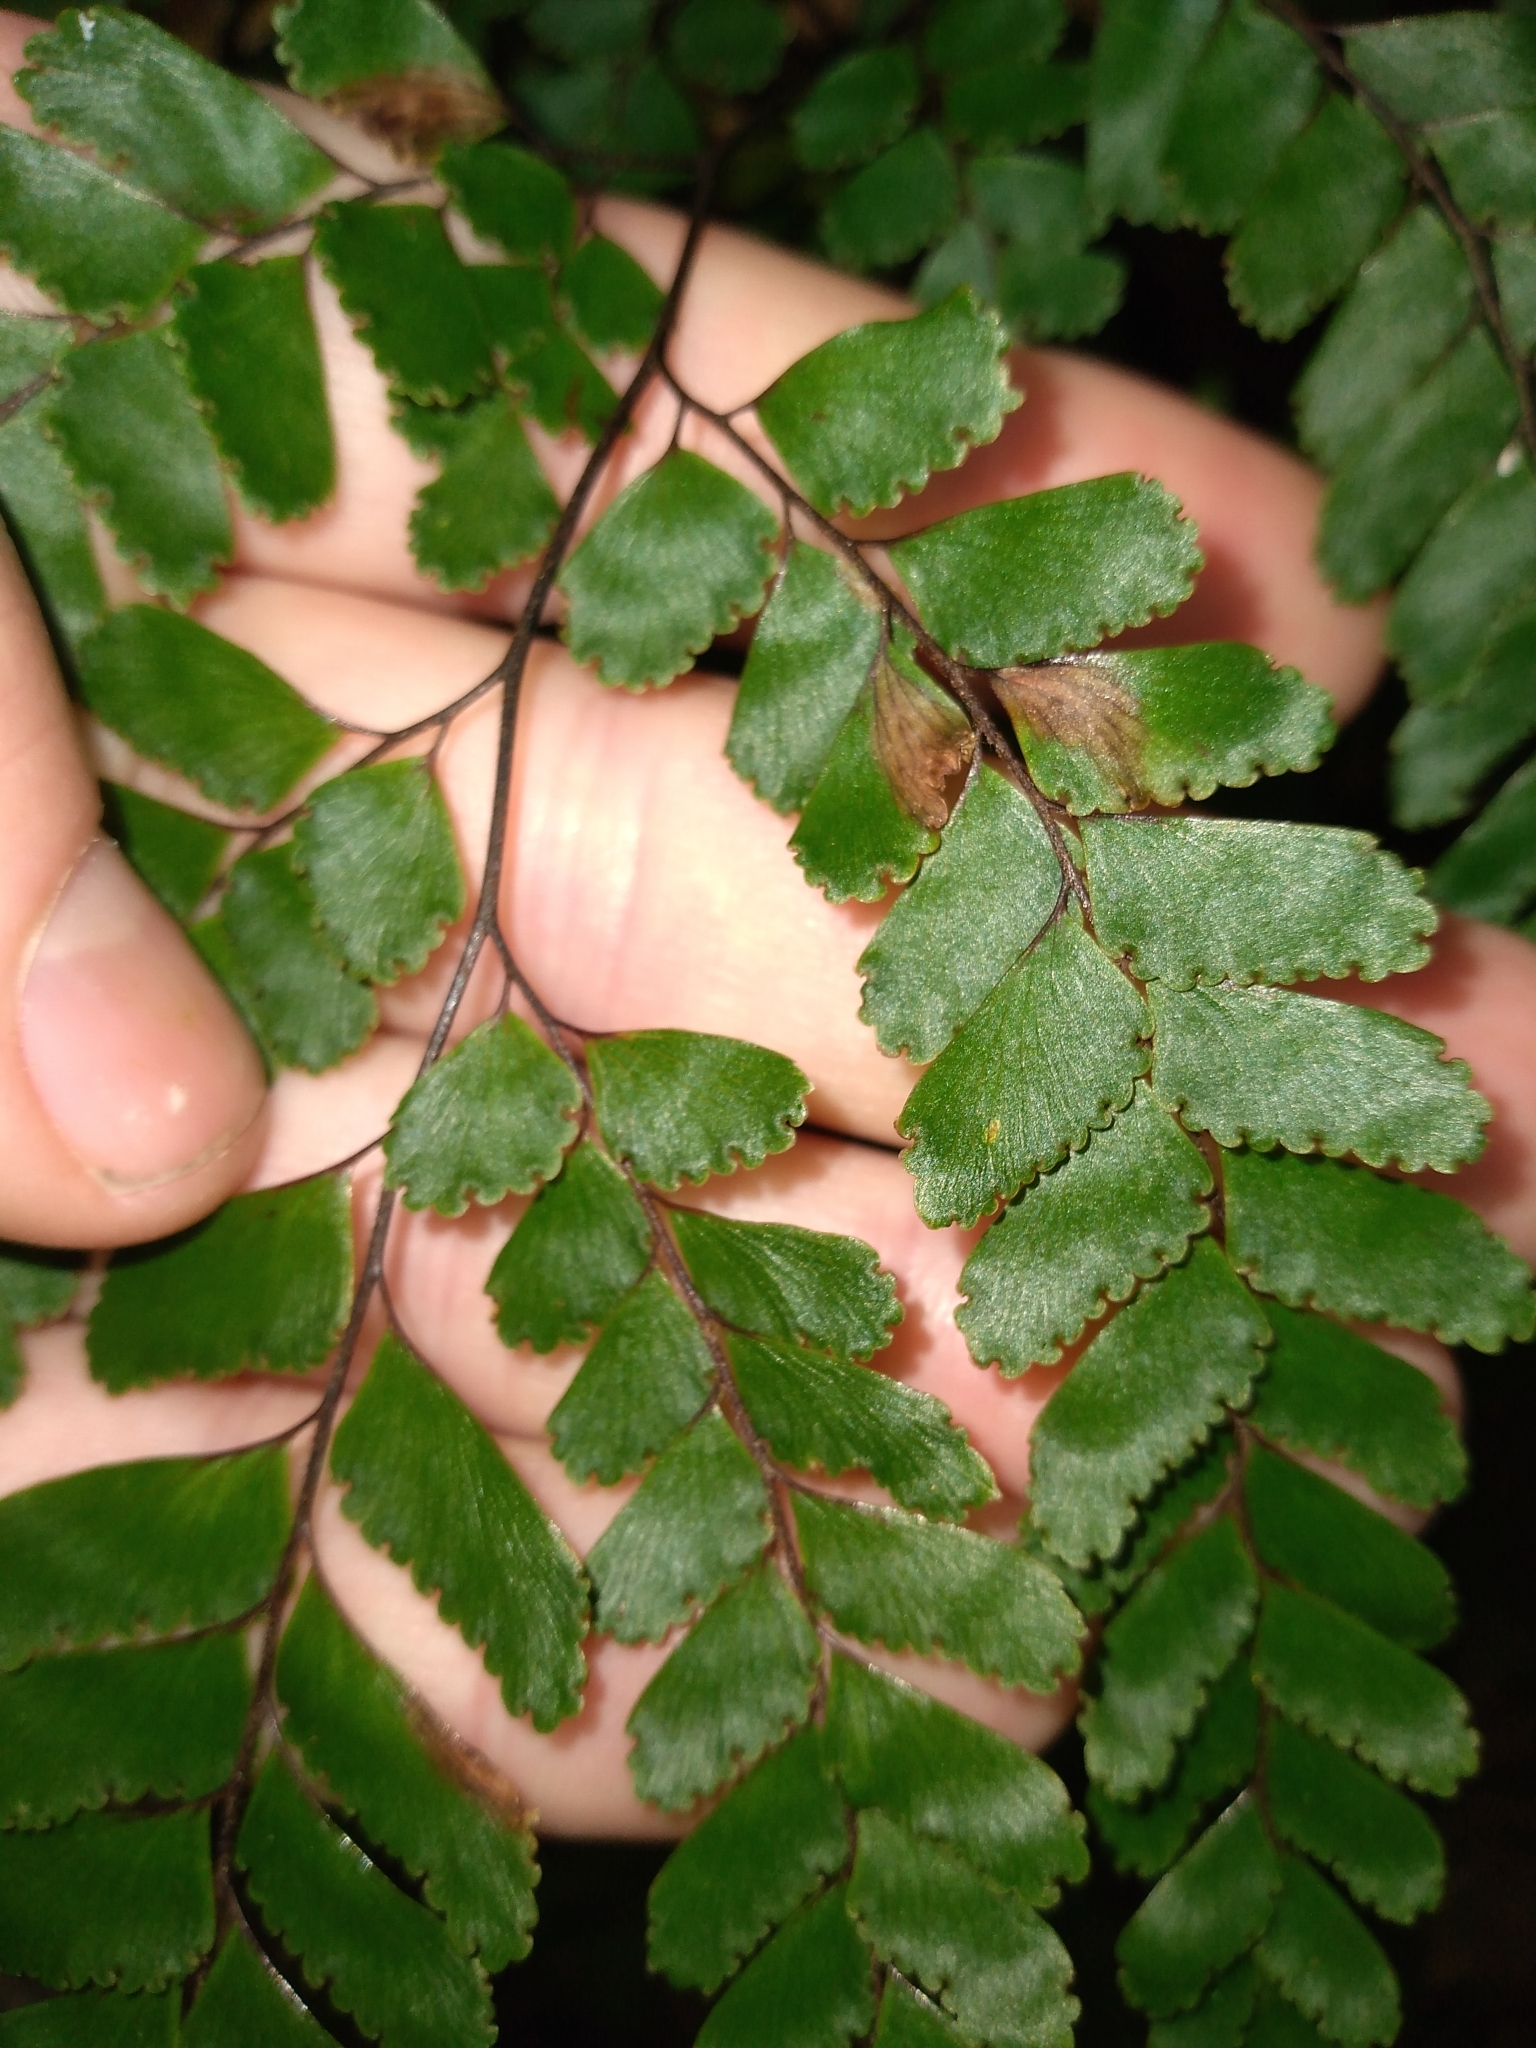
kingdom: Plantae
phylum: Tracheophyta
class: Polypodiopsida
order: Polypodiales
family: Pteridaceae
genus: Adiantum
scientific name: Adiantum fulvum
